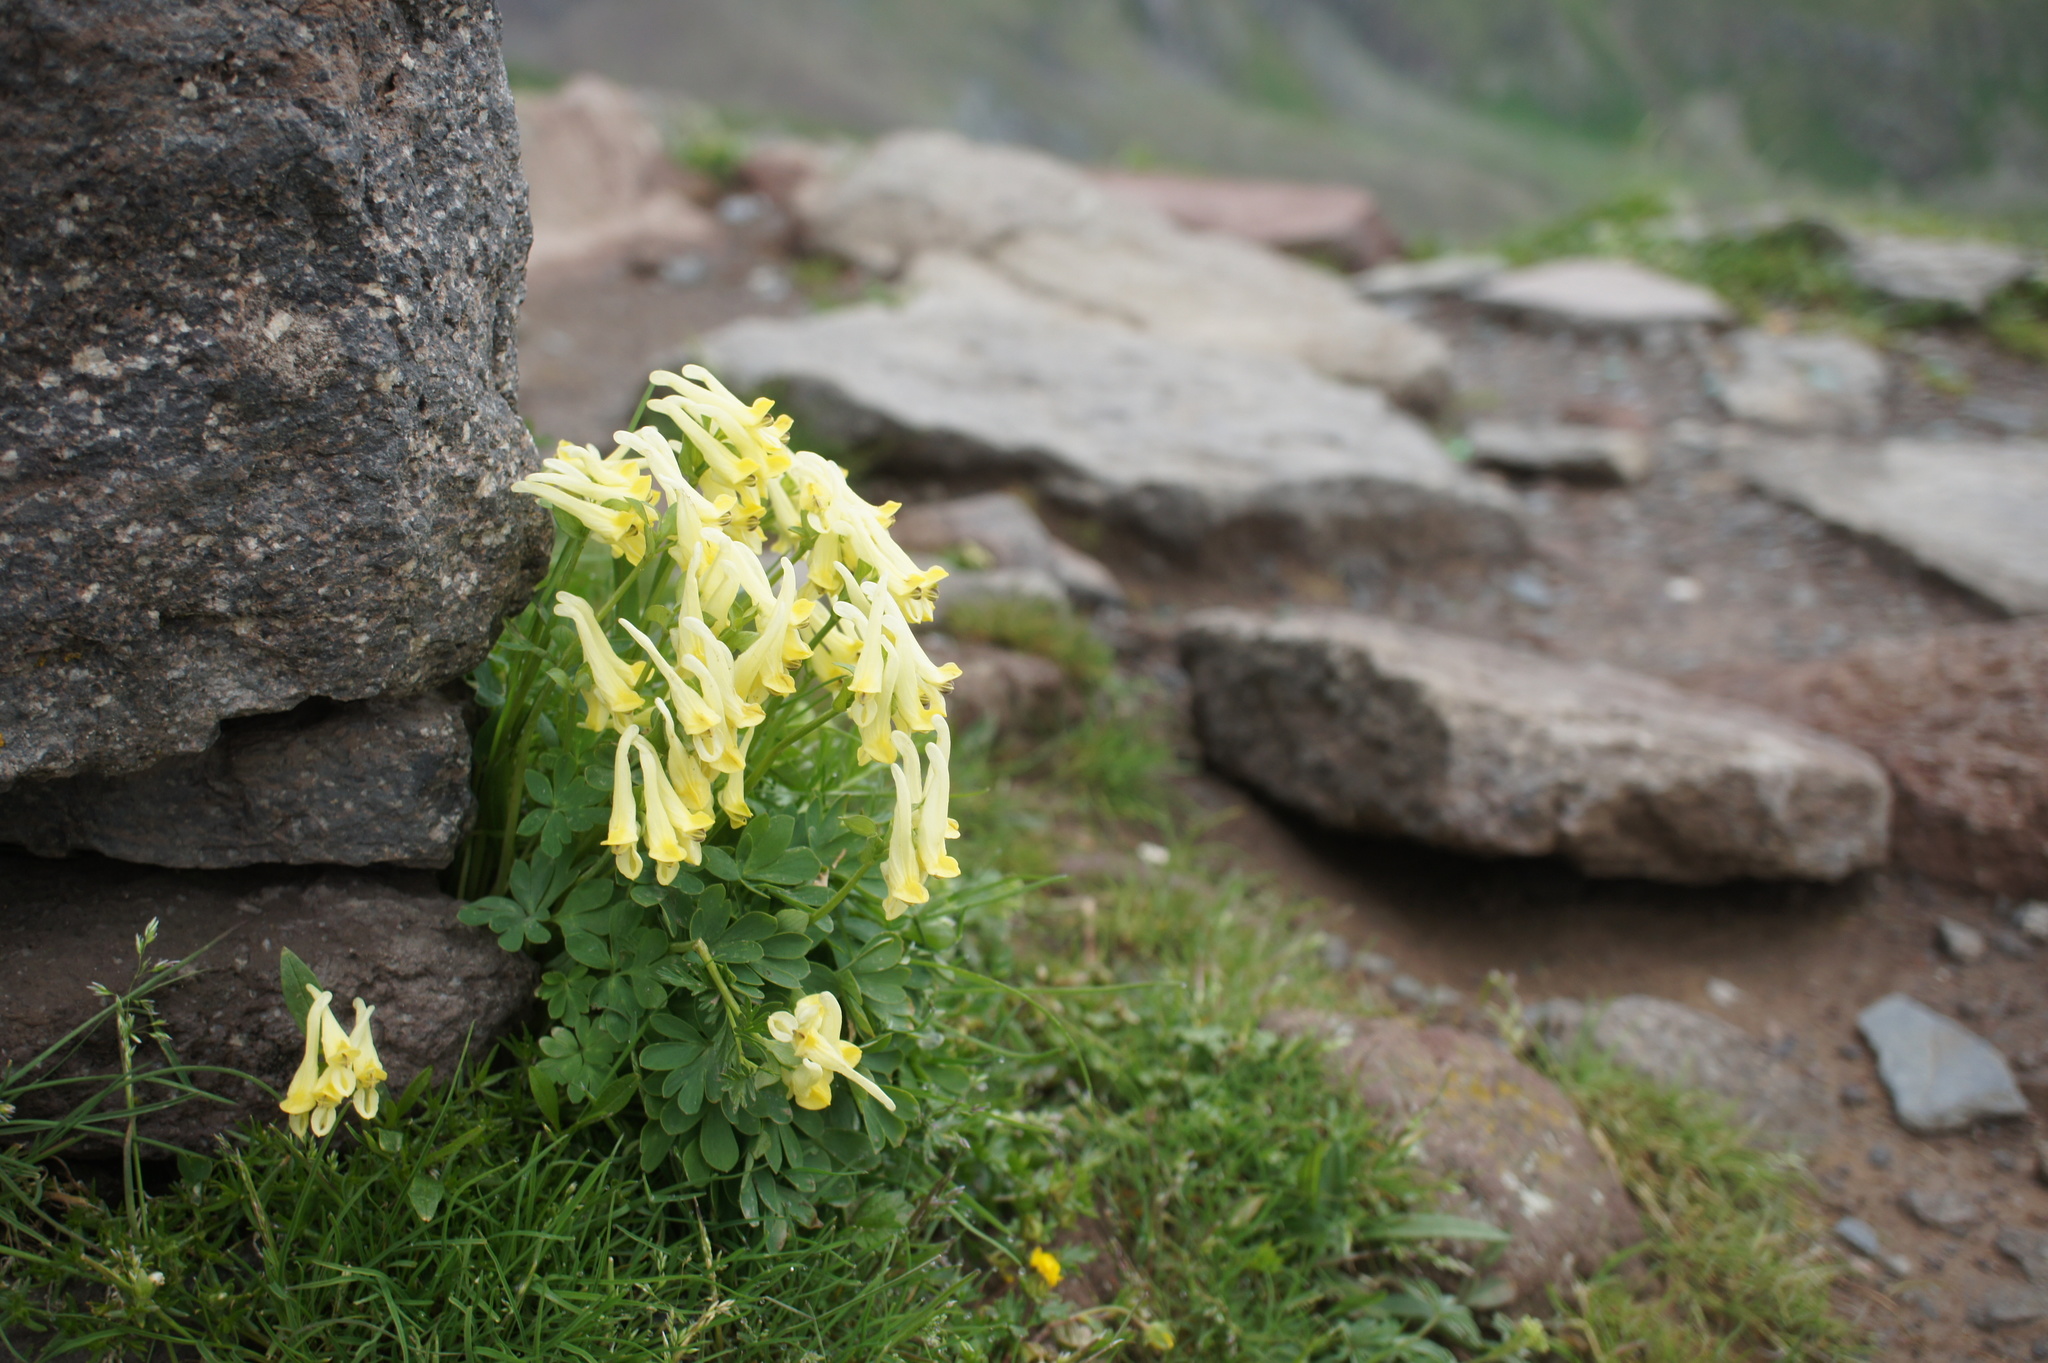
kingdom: Plantae
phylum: Tracheophyta
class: Magnoliopsida
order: Ranunculales
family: Papaveraceae
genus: Corydalis
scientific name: Corydalis emanueli
